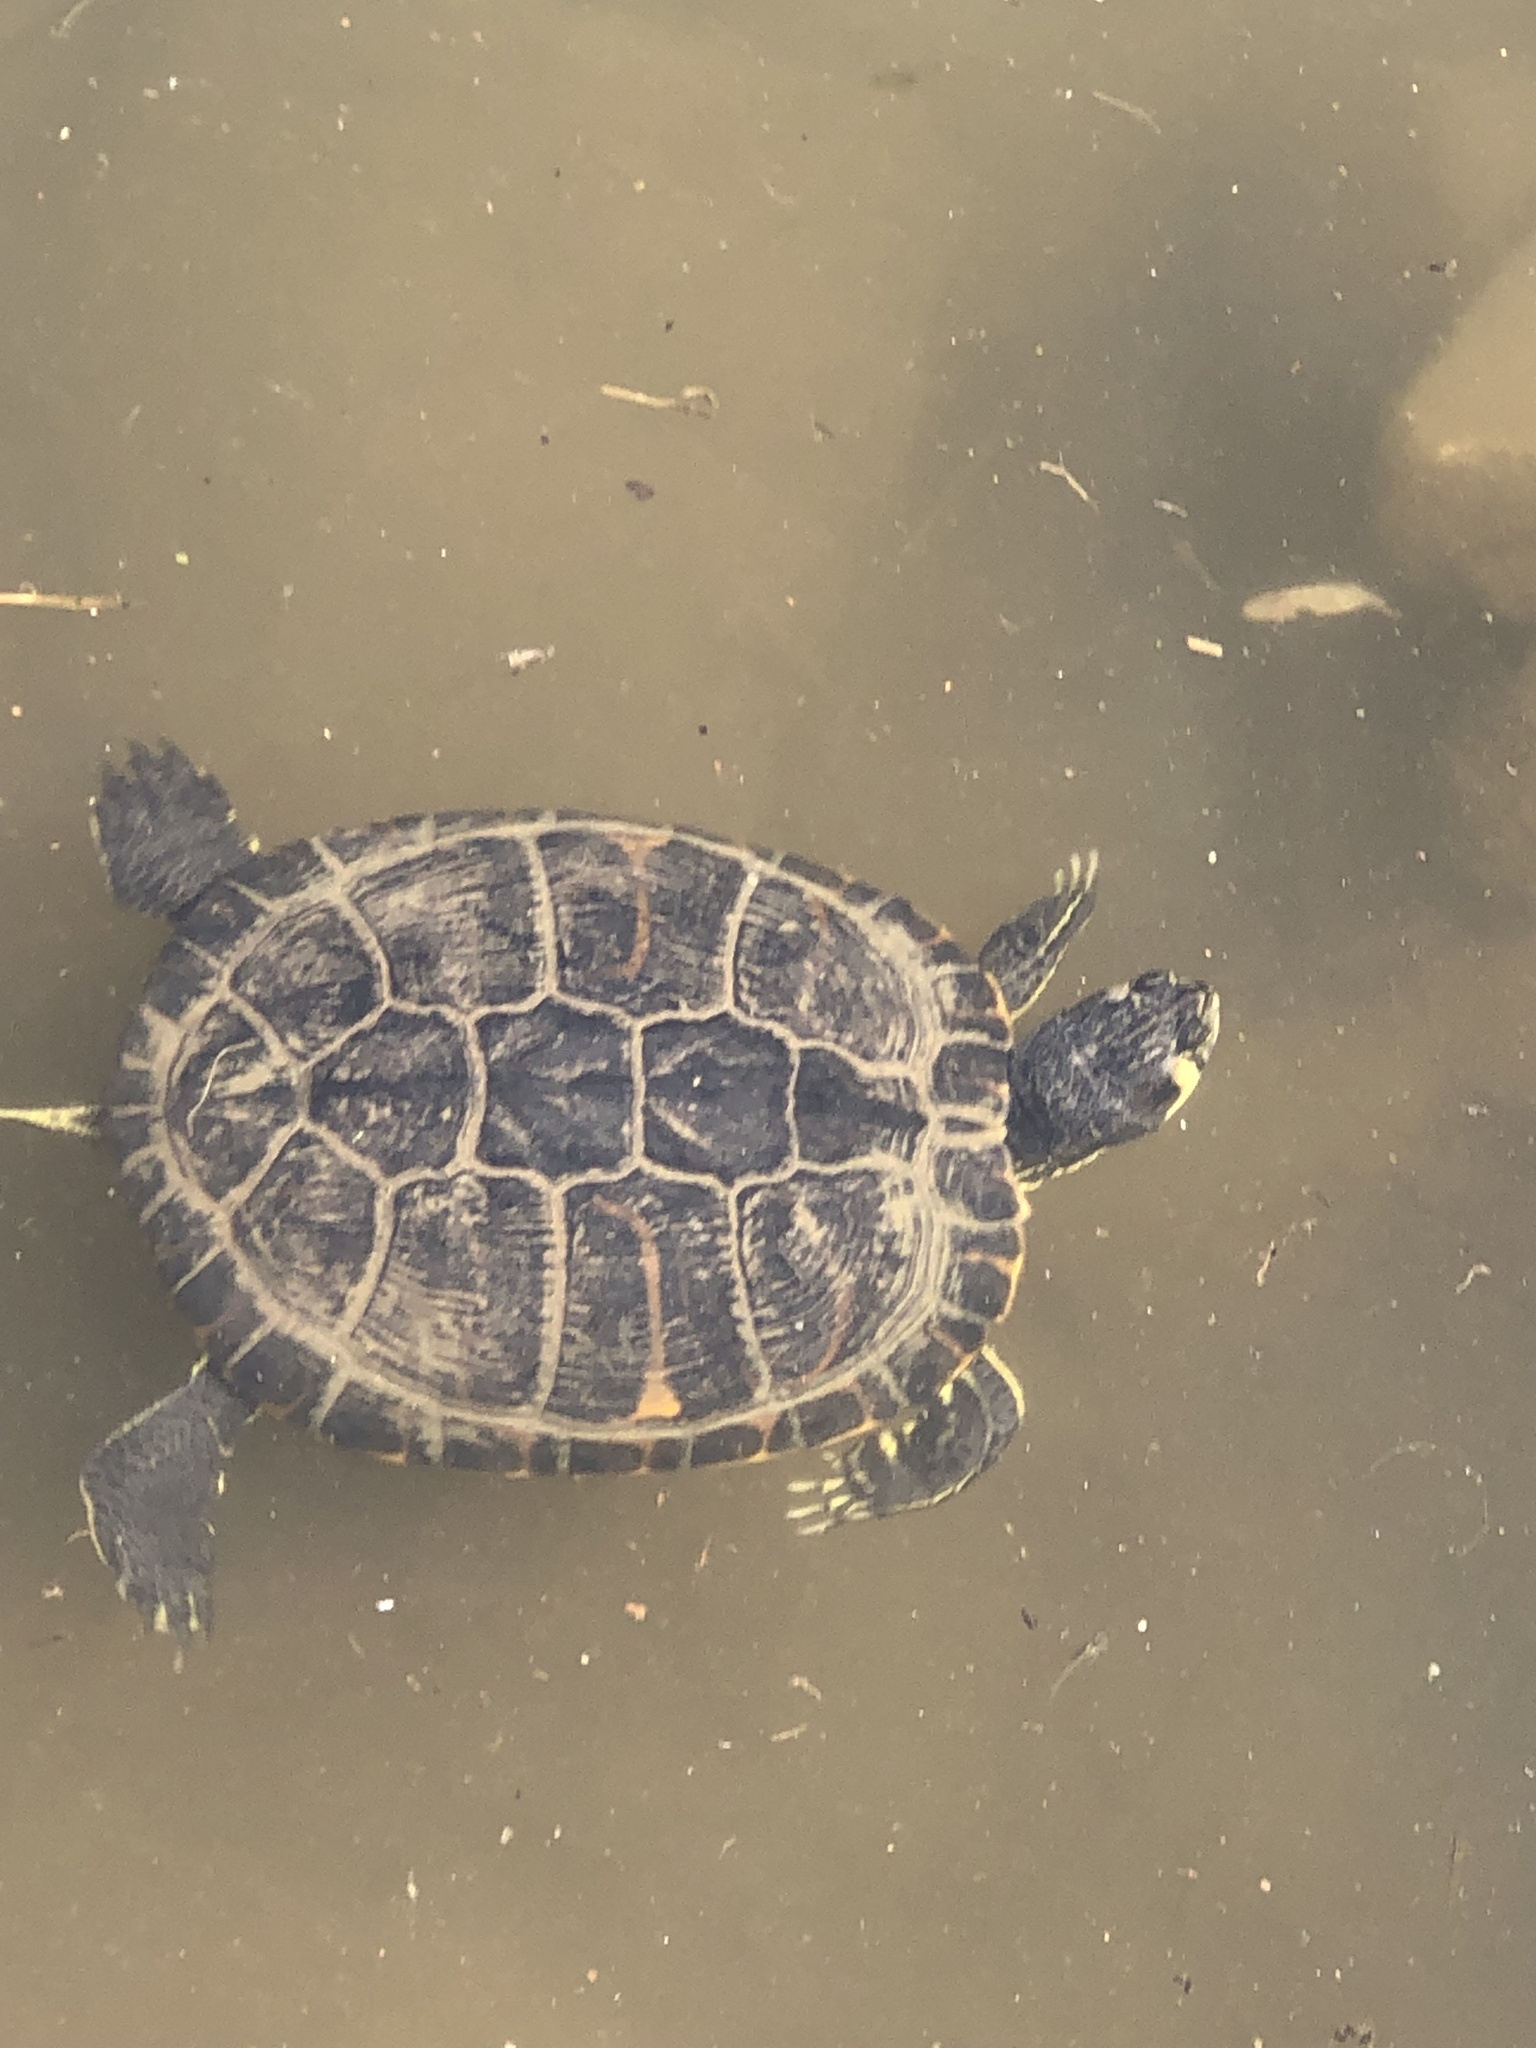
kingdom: Animalia
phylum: Chordata
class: Testudines
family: Emydidae
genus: Trachemys
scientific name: Trachemys scripta
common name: Slider
